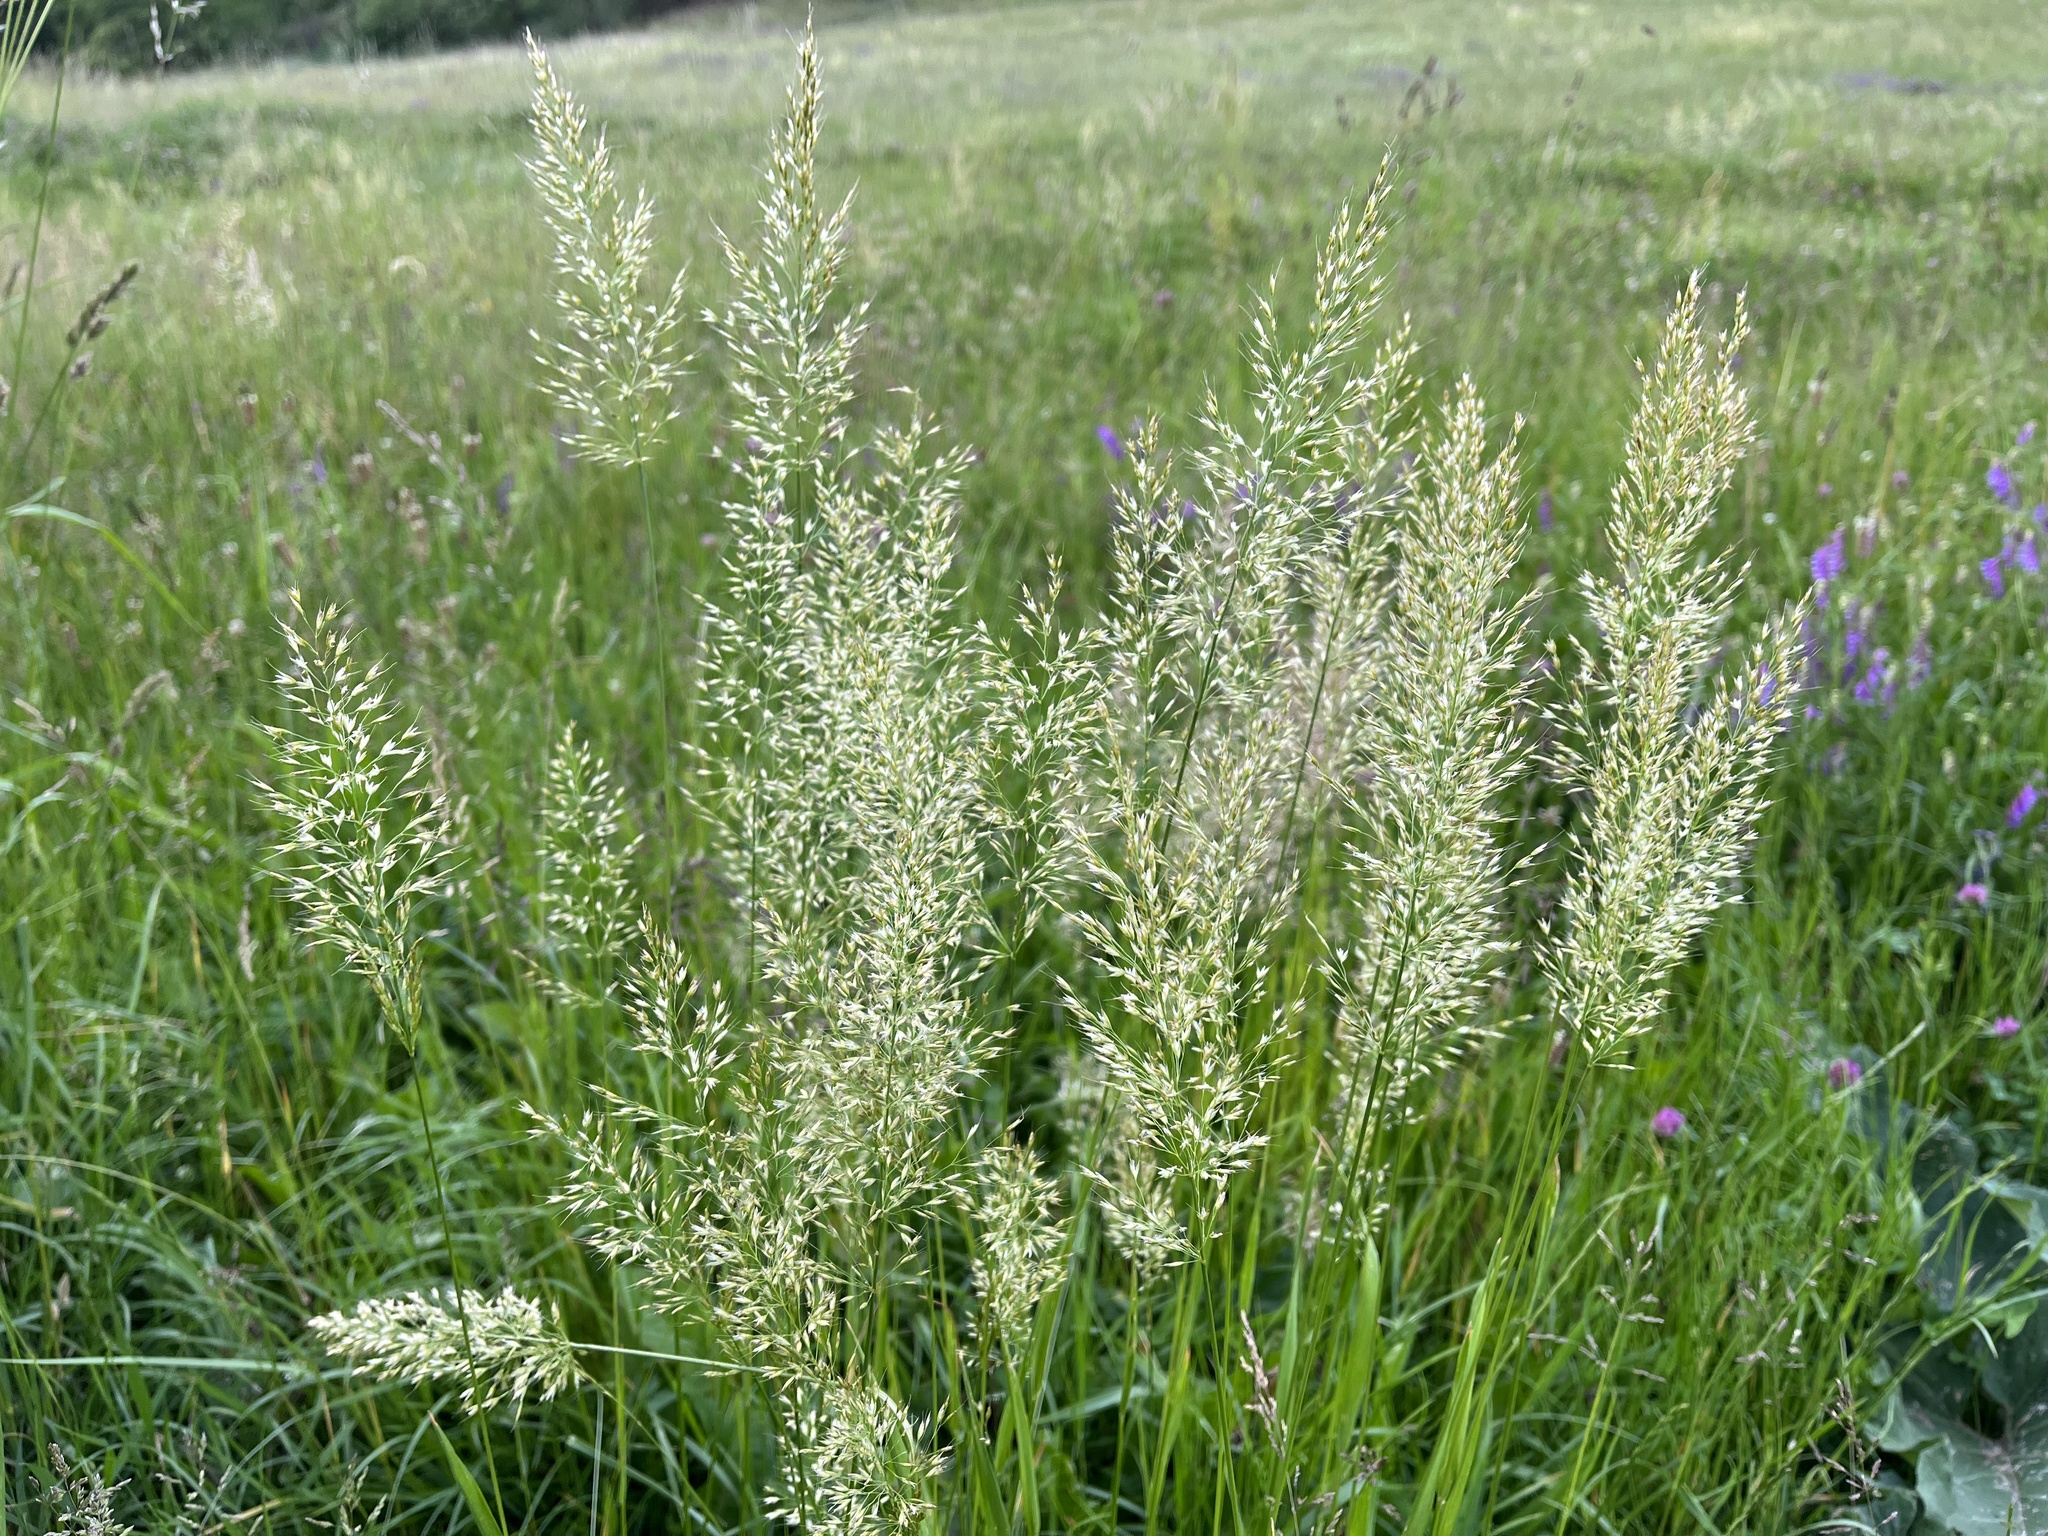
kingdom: Plantae
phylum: Tracheophyta
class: Liliopsida
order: Poales
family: Poaceae
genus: Trisetum
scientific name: Trisetum flavescens
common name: Yellow oat-grass
